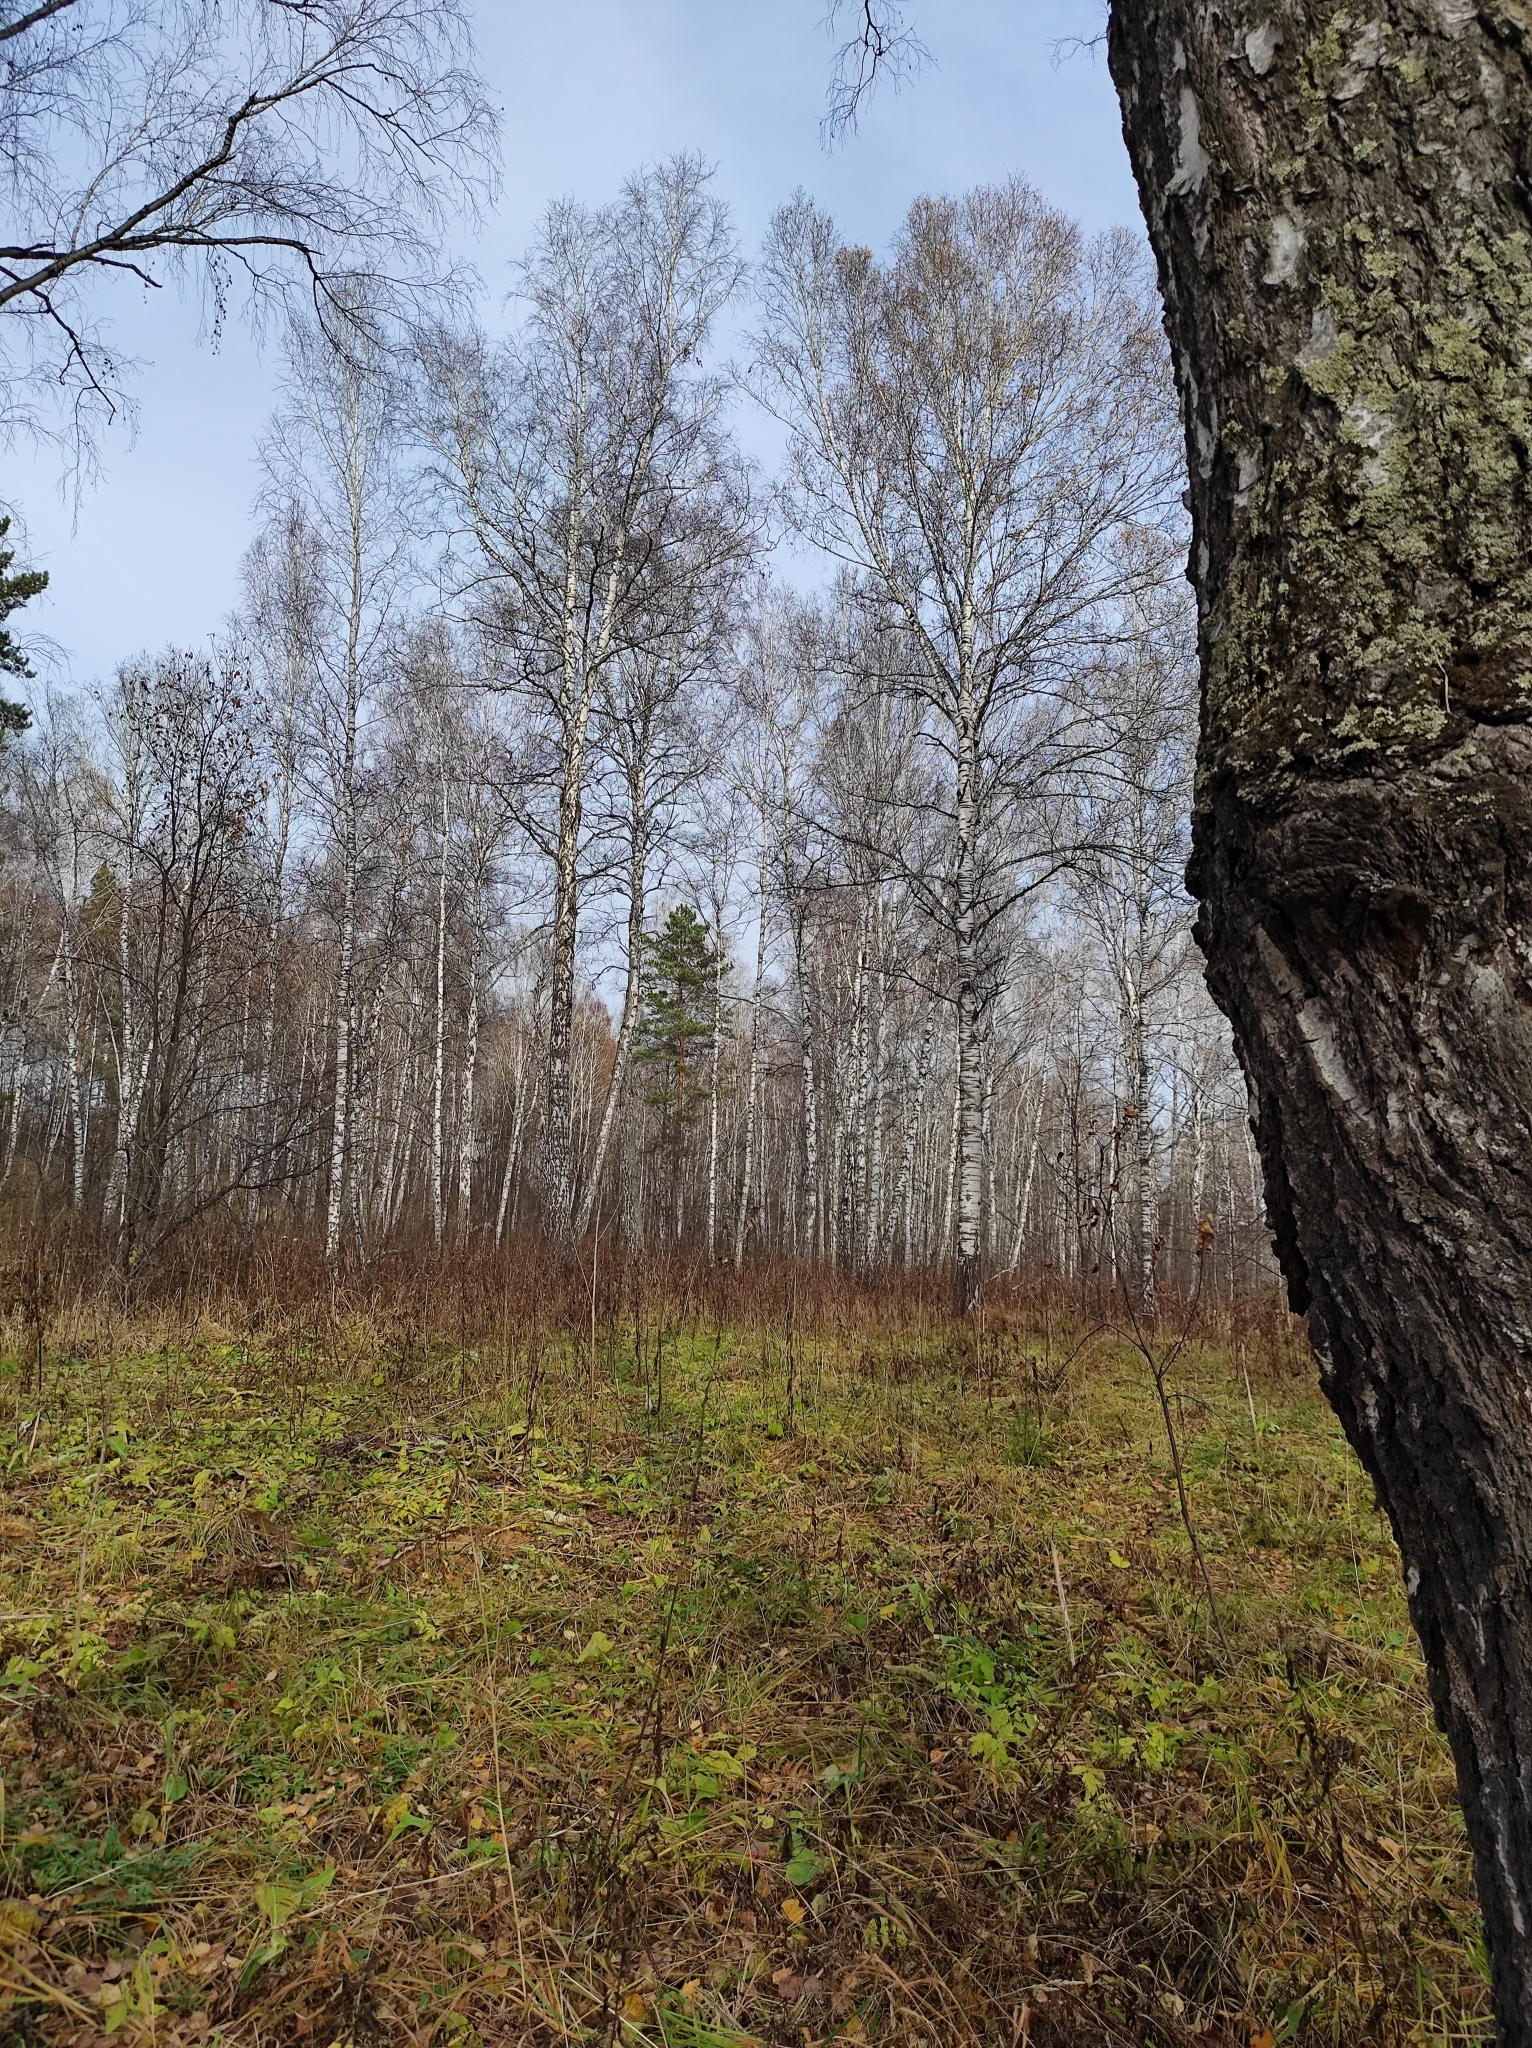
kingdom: Plantae
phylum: Tracheophyta
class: Pinopsida
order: Pinales
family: Pinaceae
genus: Pinus
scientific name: Pinus sylvestris
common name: Scots pine
